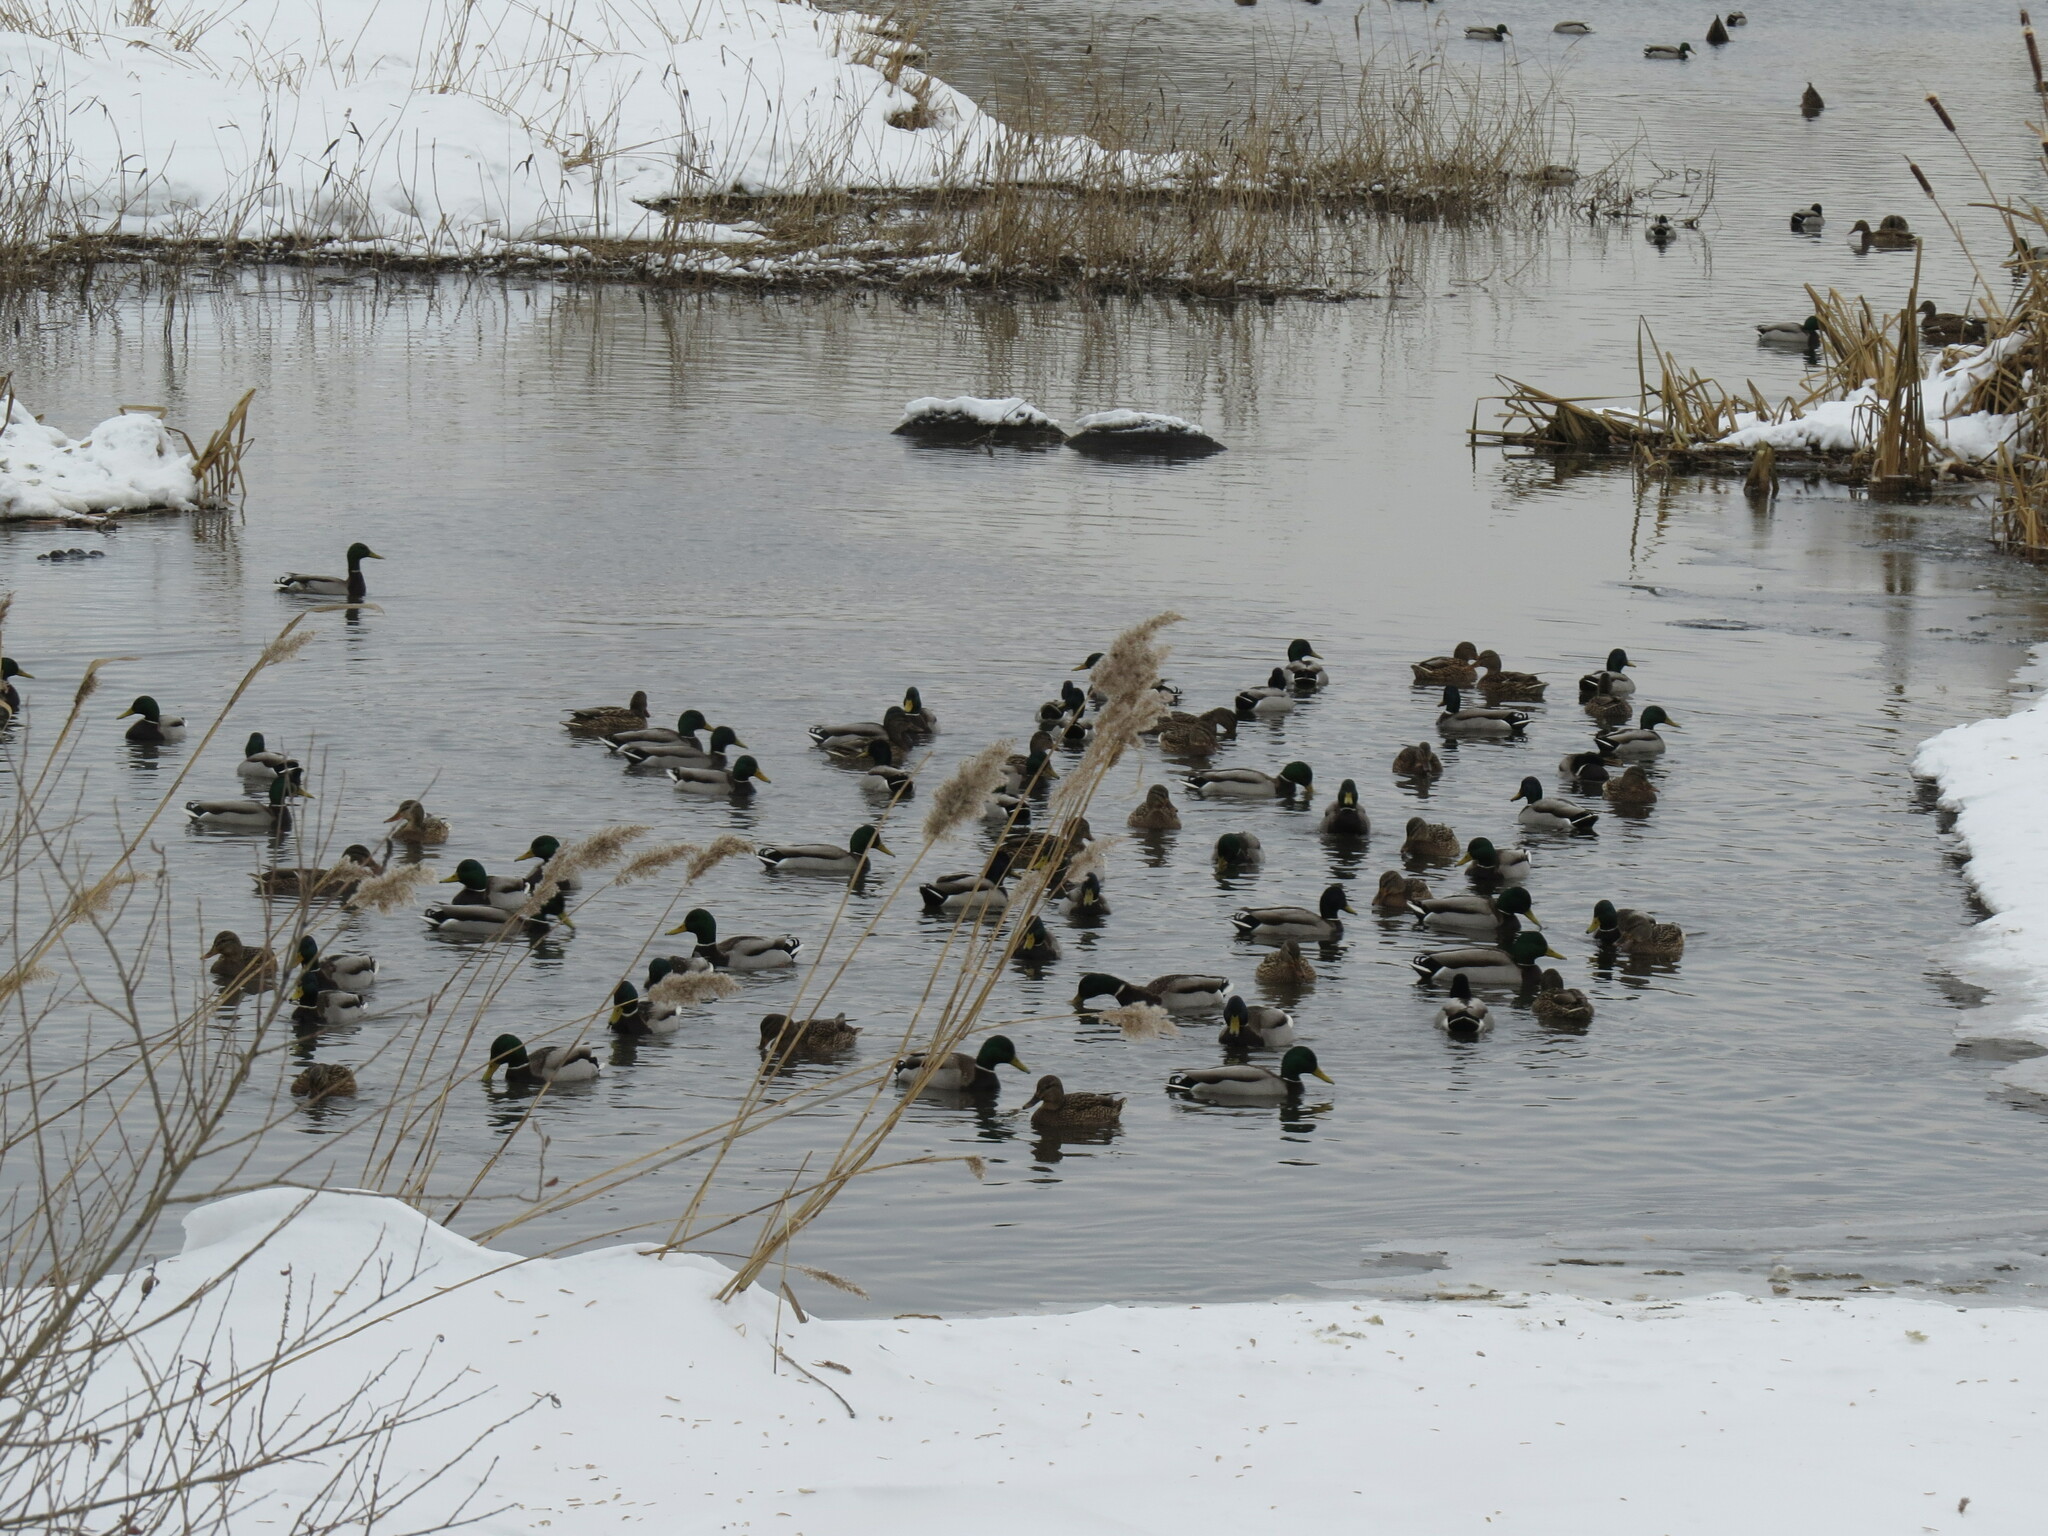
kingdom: Animalia
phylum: Chordata
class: Aves
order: Anseriformes
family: Anatidae
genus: Anas
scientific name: Anas platyrhynchos
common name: Mallard
